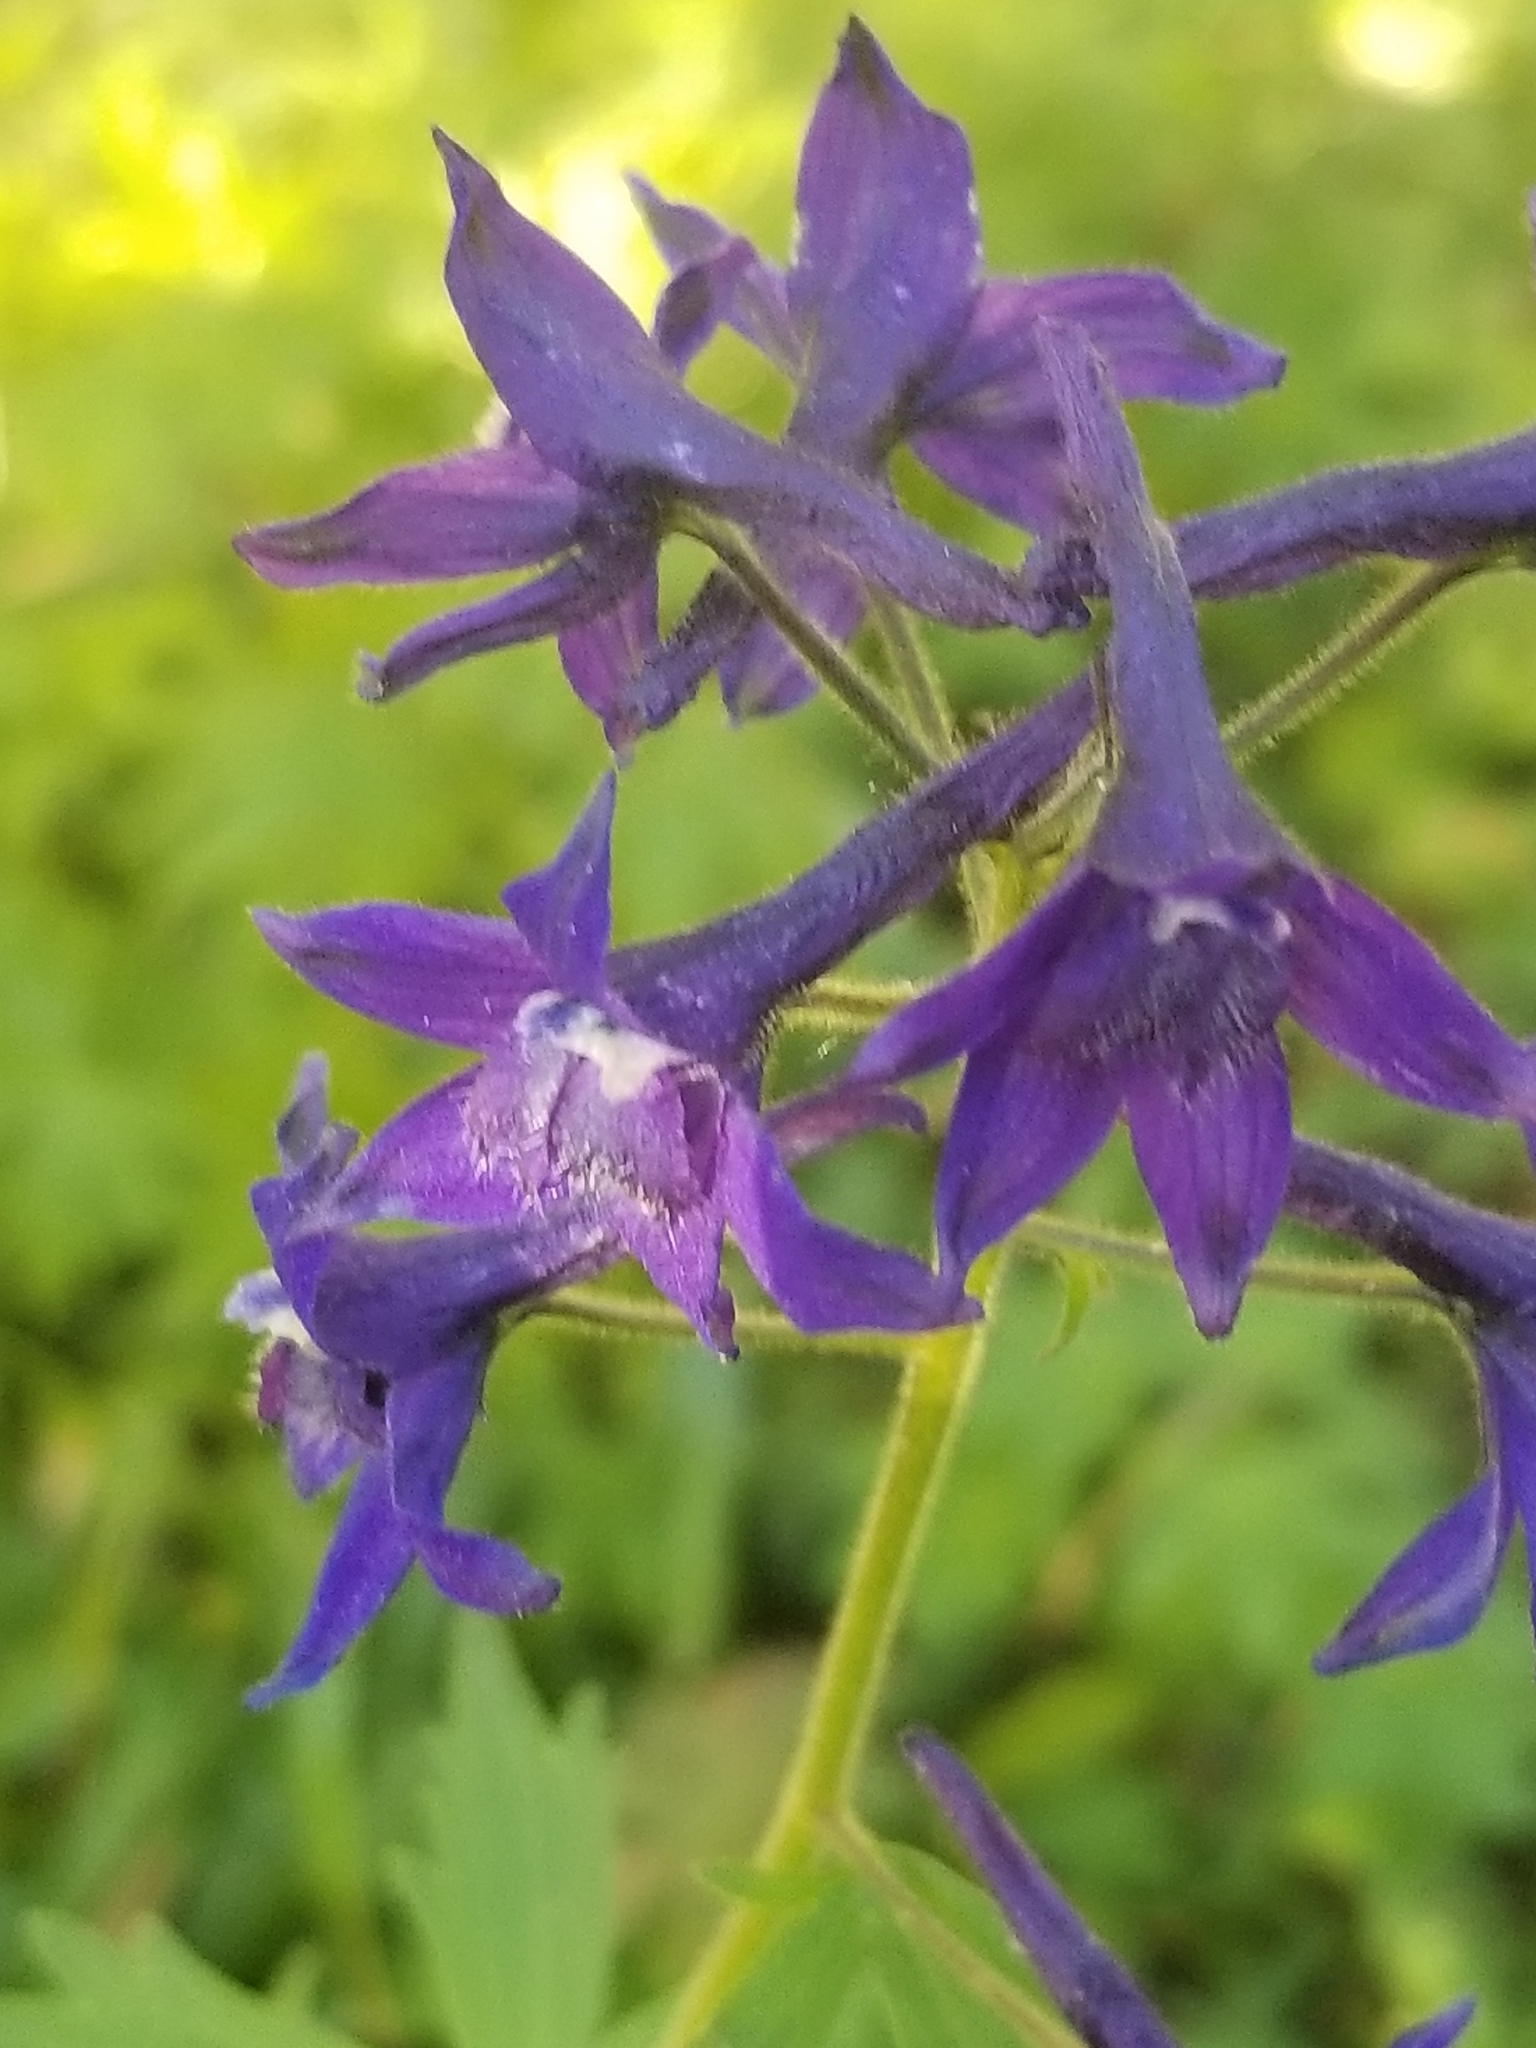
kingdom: Plantae
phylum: Tracheophyta
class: Magnoliopsida
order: Ranunculales
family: Ranunculaceae
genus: Delphinium
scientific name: Delphinium barbeyi
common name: Subalpine larkspur
